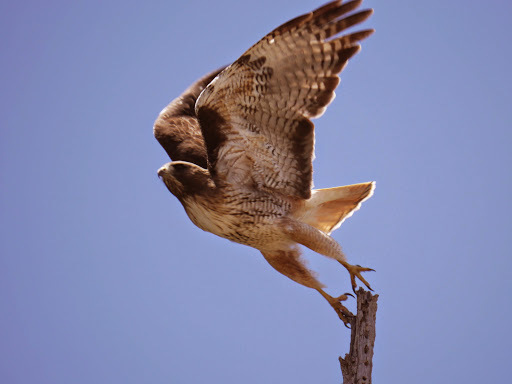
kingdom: Animalia
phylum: Chordata
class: Aves
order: Accipitriformes
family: Accipitridae
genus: Buteo
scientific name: Buteo jamaicensis
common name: Red-tailed hawk
